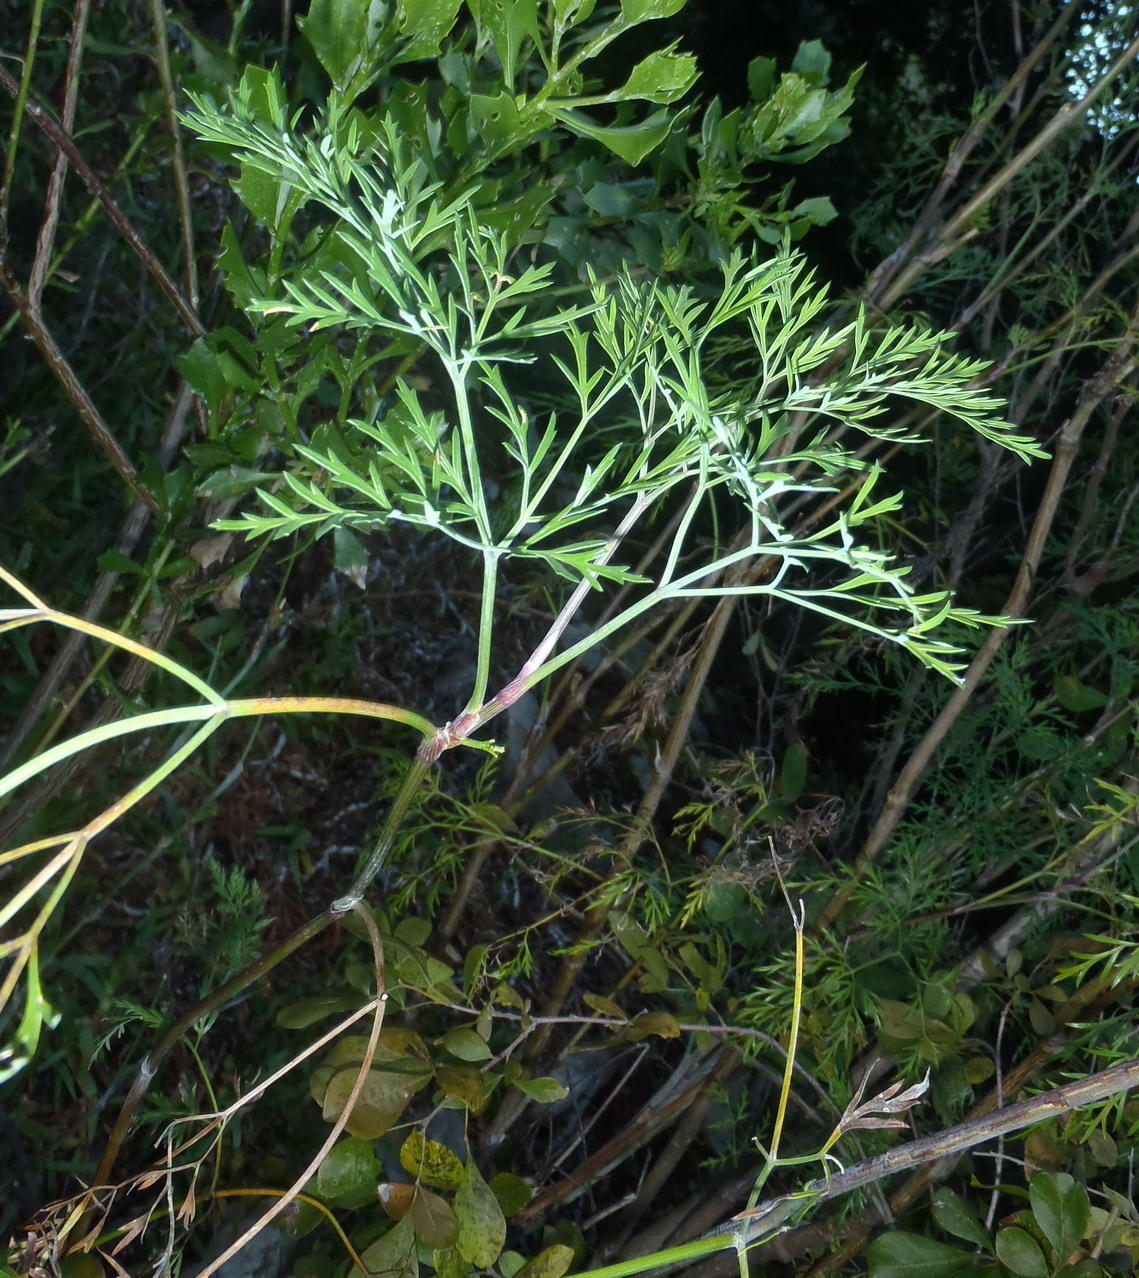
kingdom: Plantae
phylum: Tracheophyta
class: Magnoliopsida
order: Apiales
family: Apiaceae
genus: Notobubon
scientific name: Notobubon gummiferum
